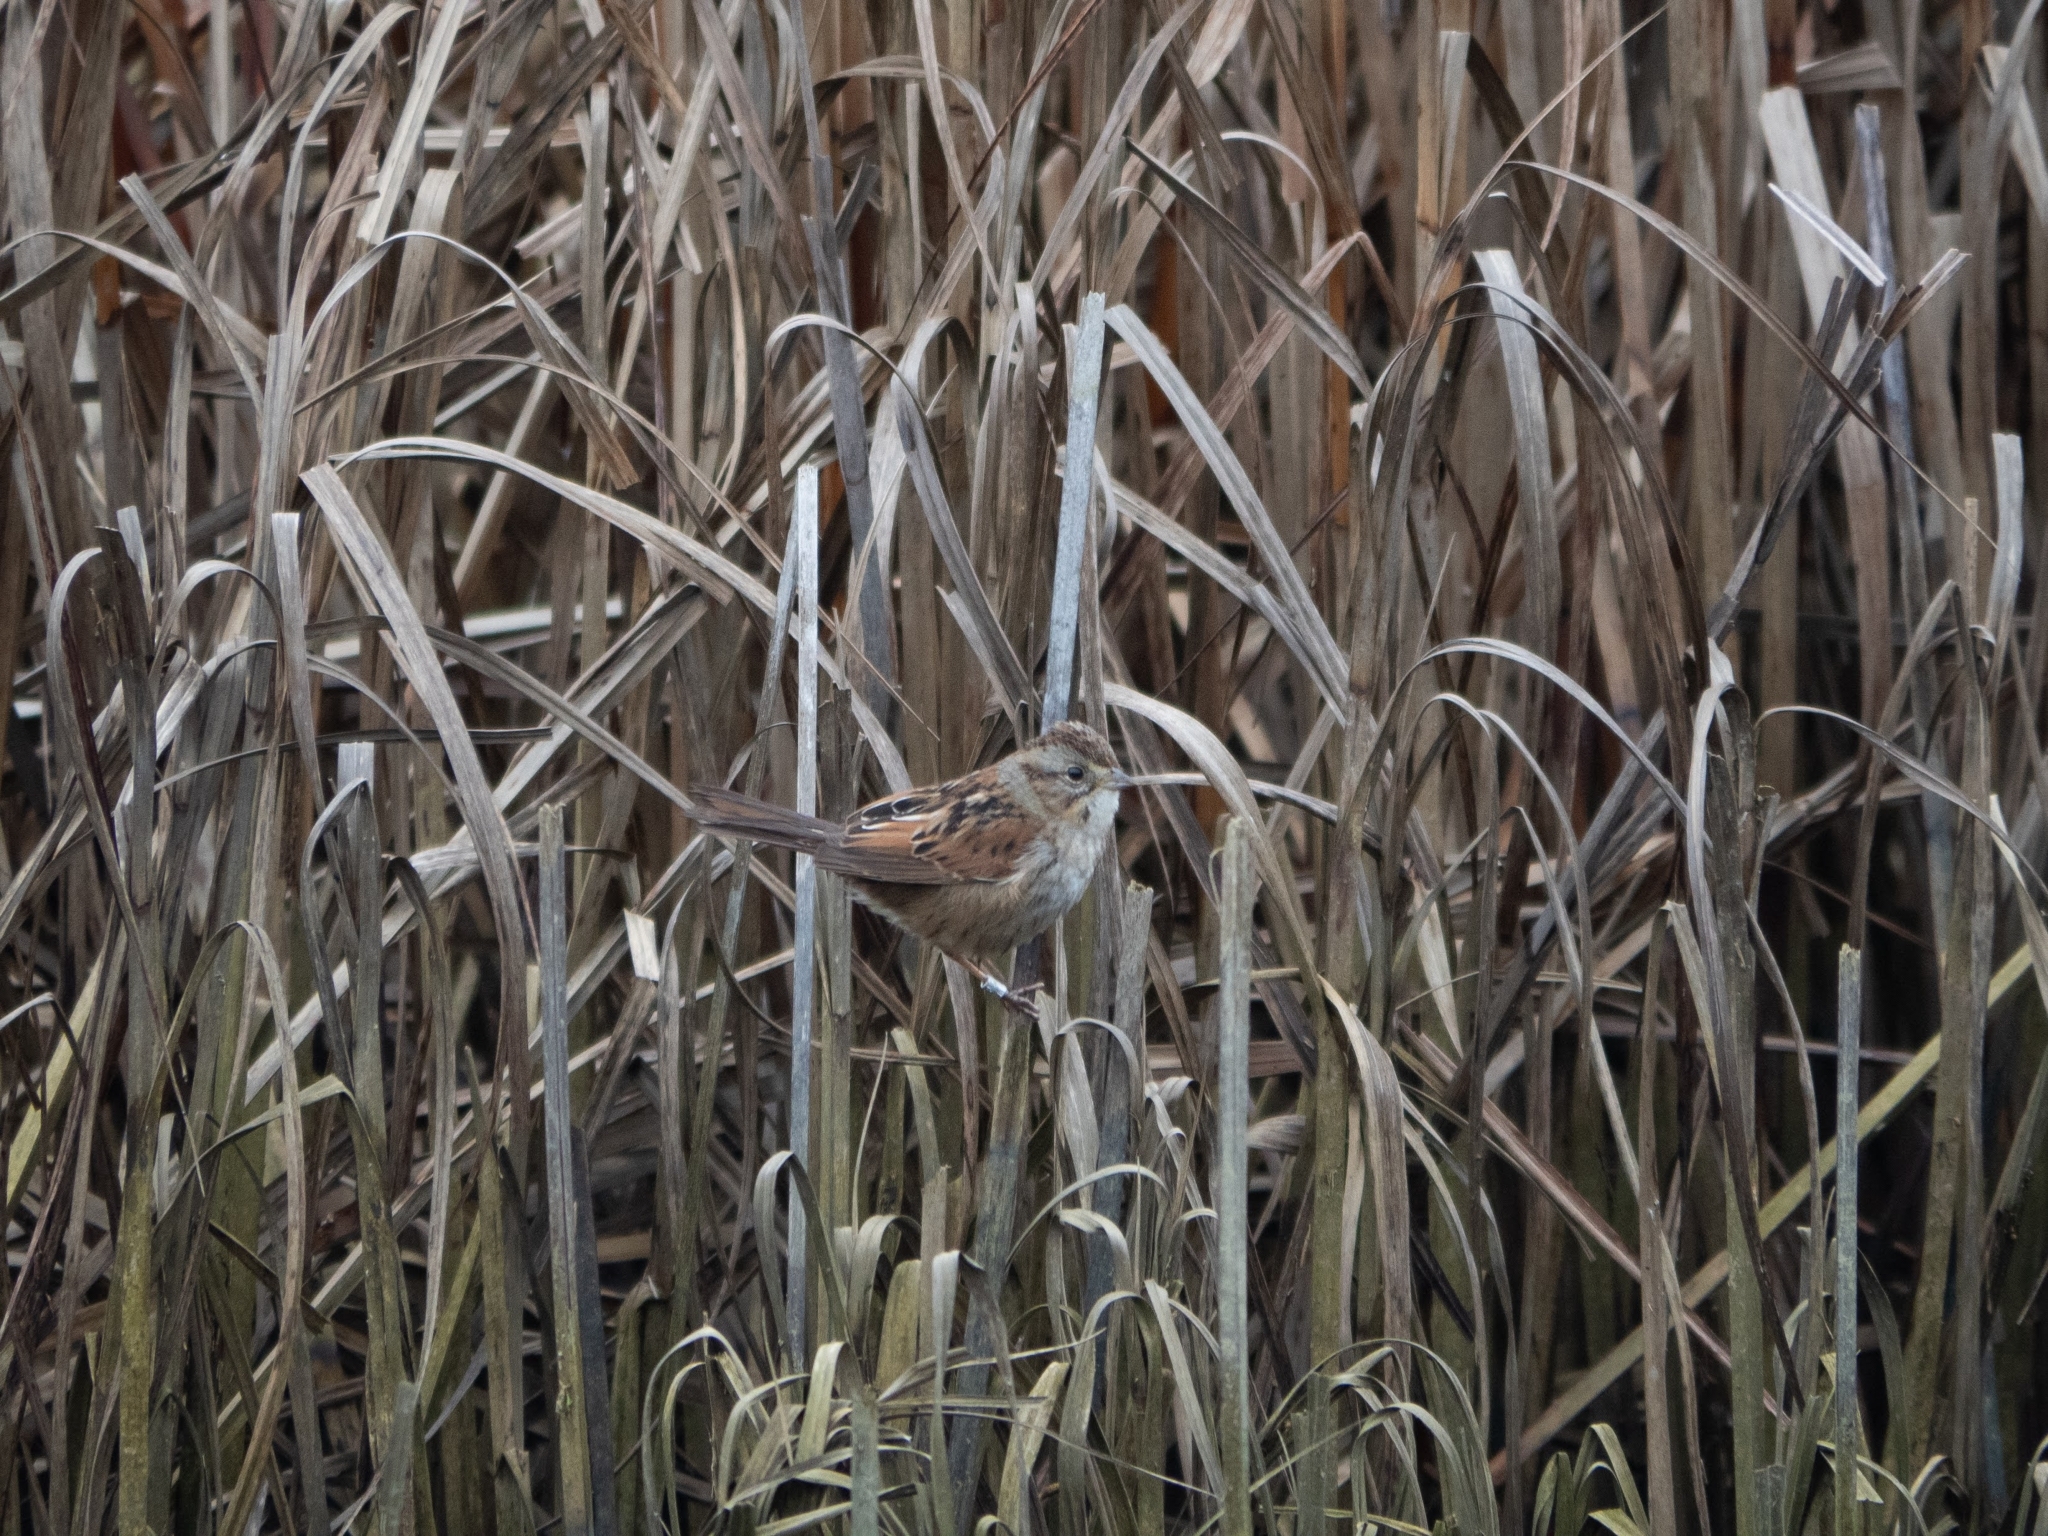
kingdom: Animalia
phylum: Chordata
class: Aves
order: Passeriformes
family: Passerellidae
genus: Melospiza
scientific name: Melospiza georgiana
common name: Swamp sparrow
